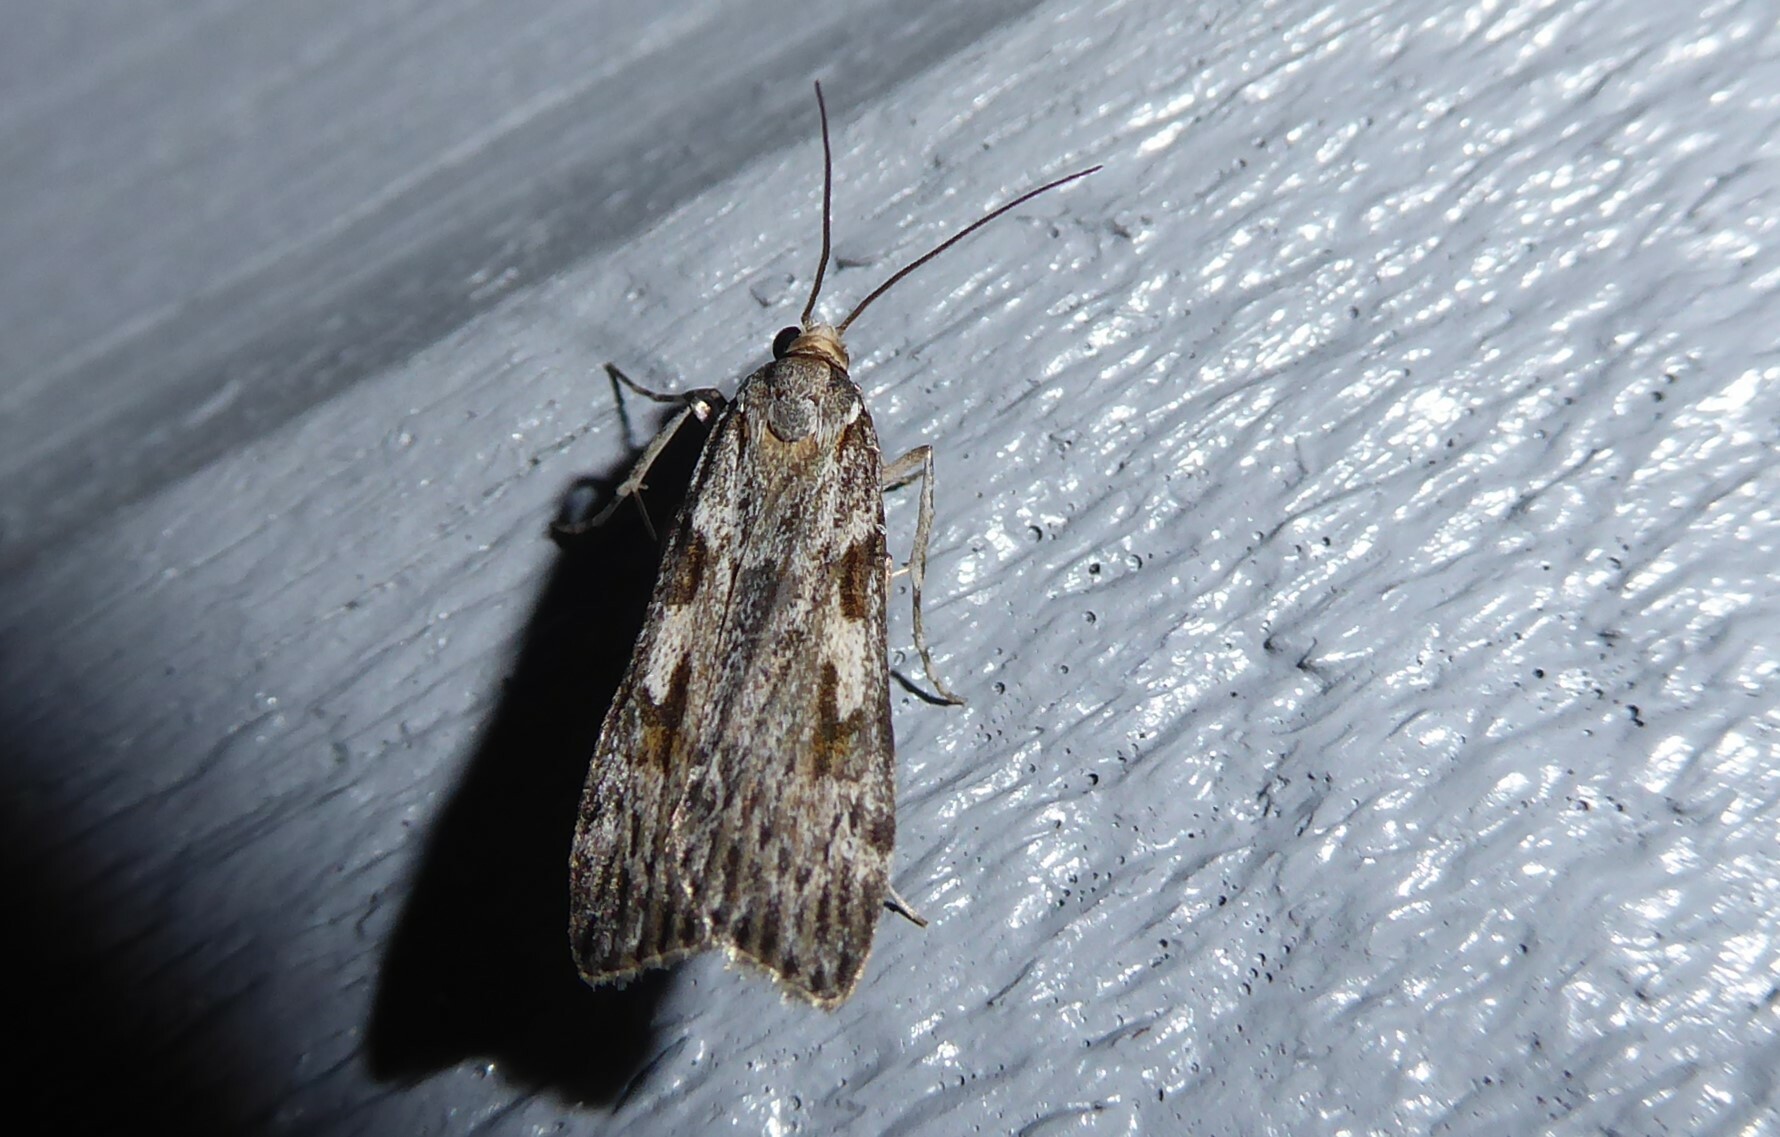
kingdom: Animalia
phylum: Arthropoda
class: Insecta
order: Lepidoptera
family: Crambidae
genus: Scoparia
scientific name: Scoparia halopis
